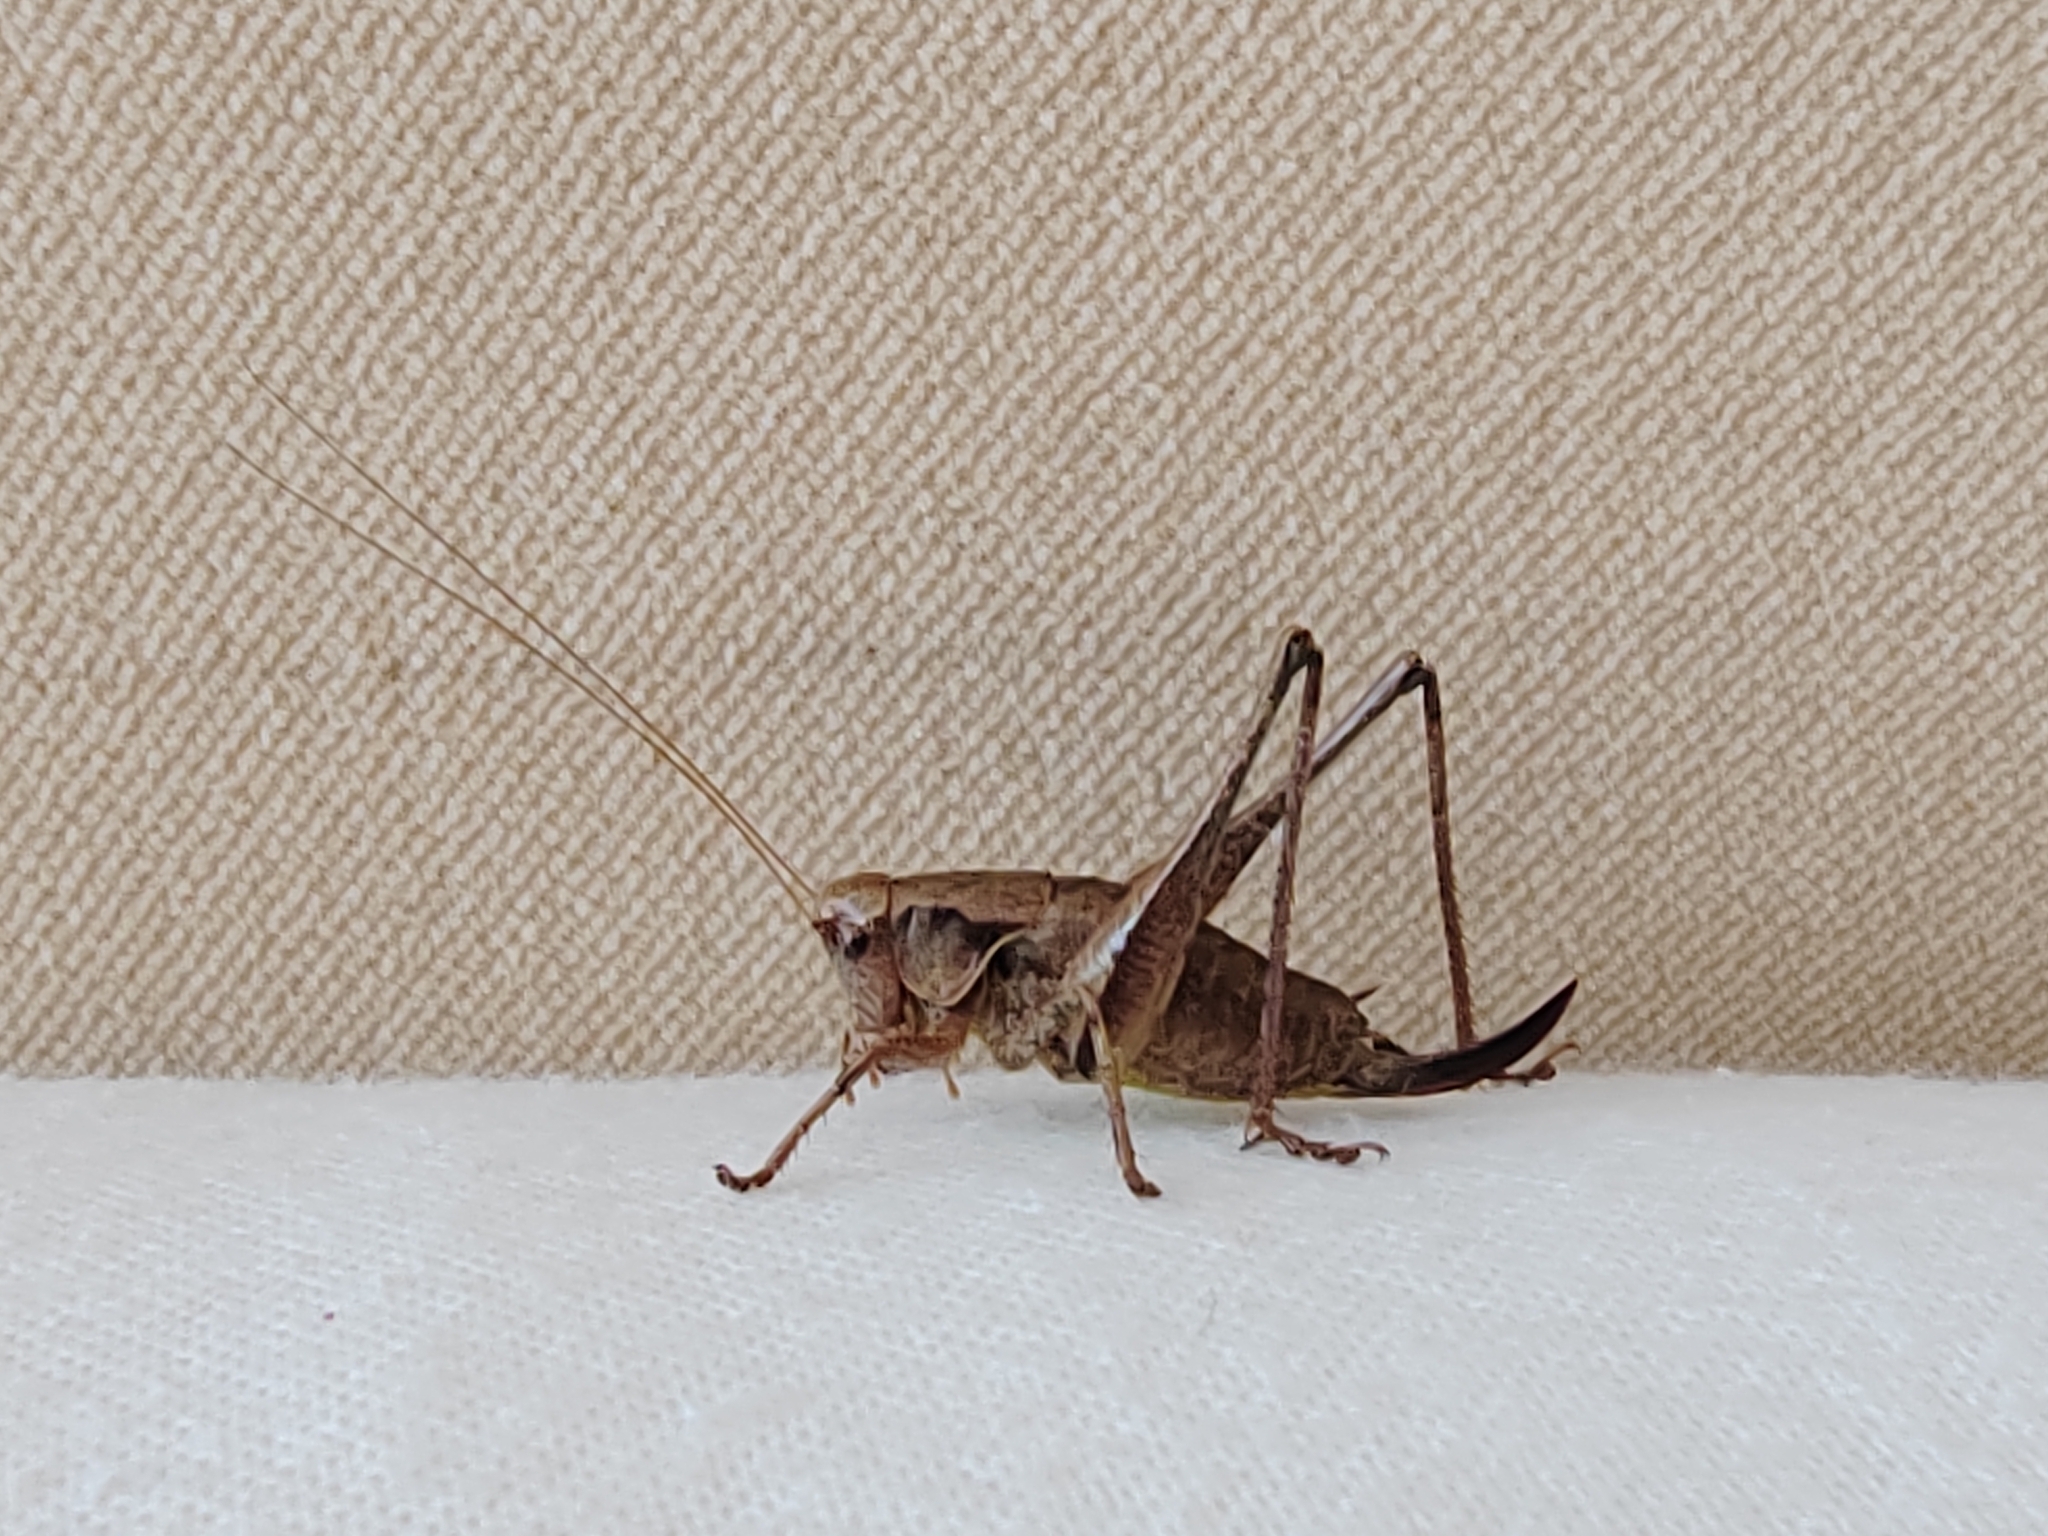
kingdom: Animalia
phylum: Arthropoda
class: Insecta
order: Orthoptera
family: Tettigoniidae
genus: Pholidoptera
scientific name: Pholidoptera griseoaptera
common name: Dark bush-cricket
